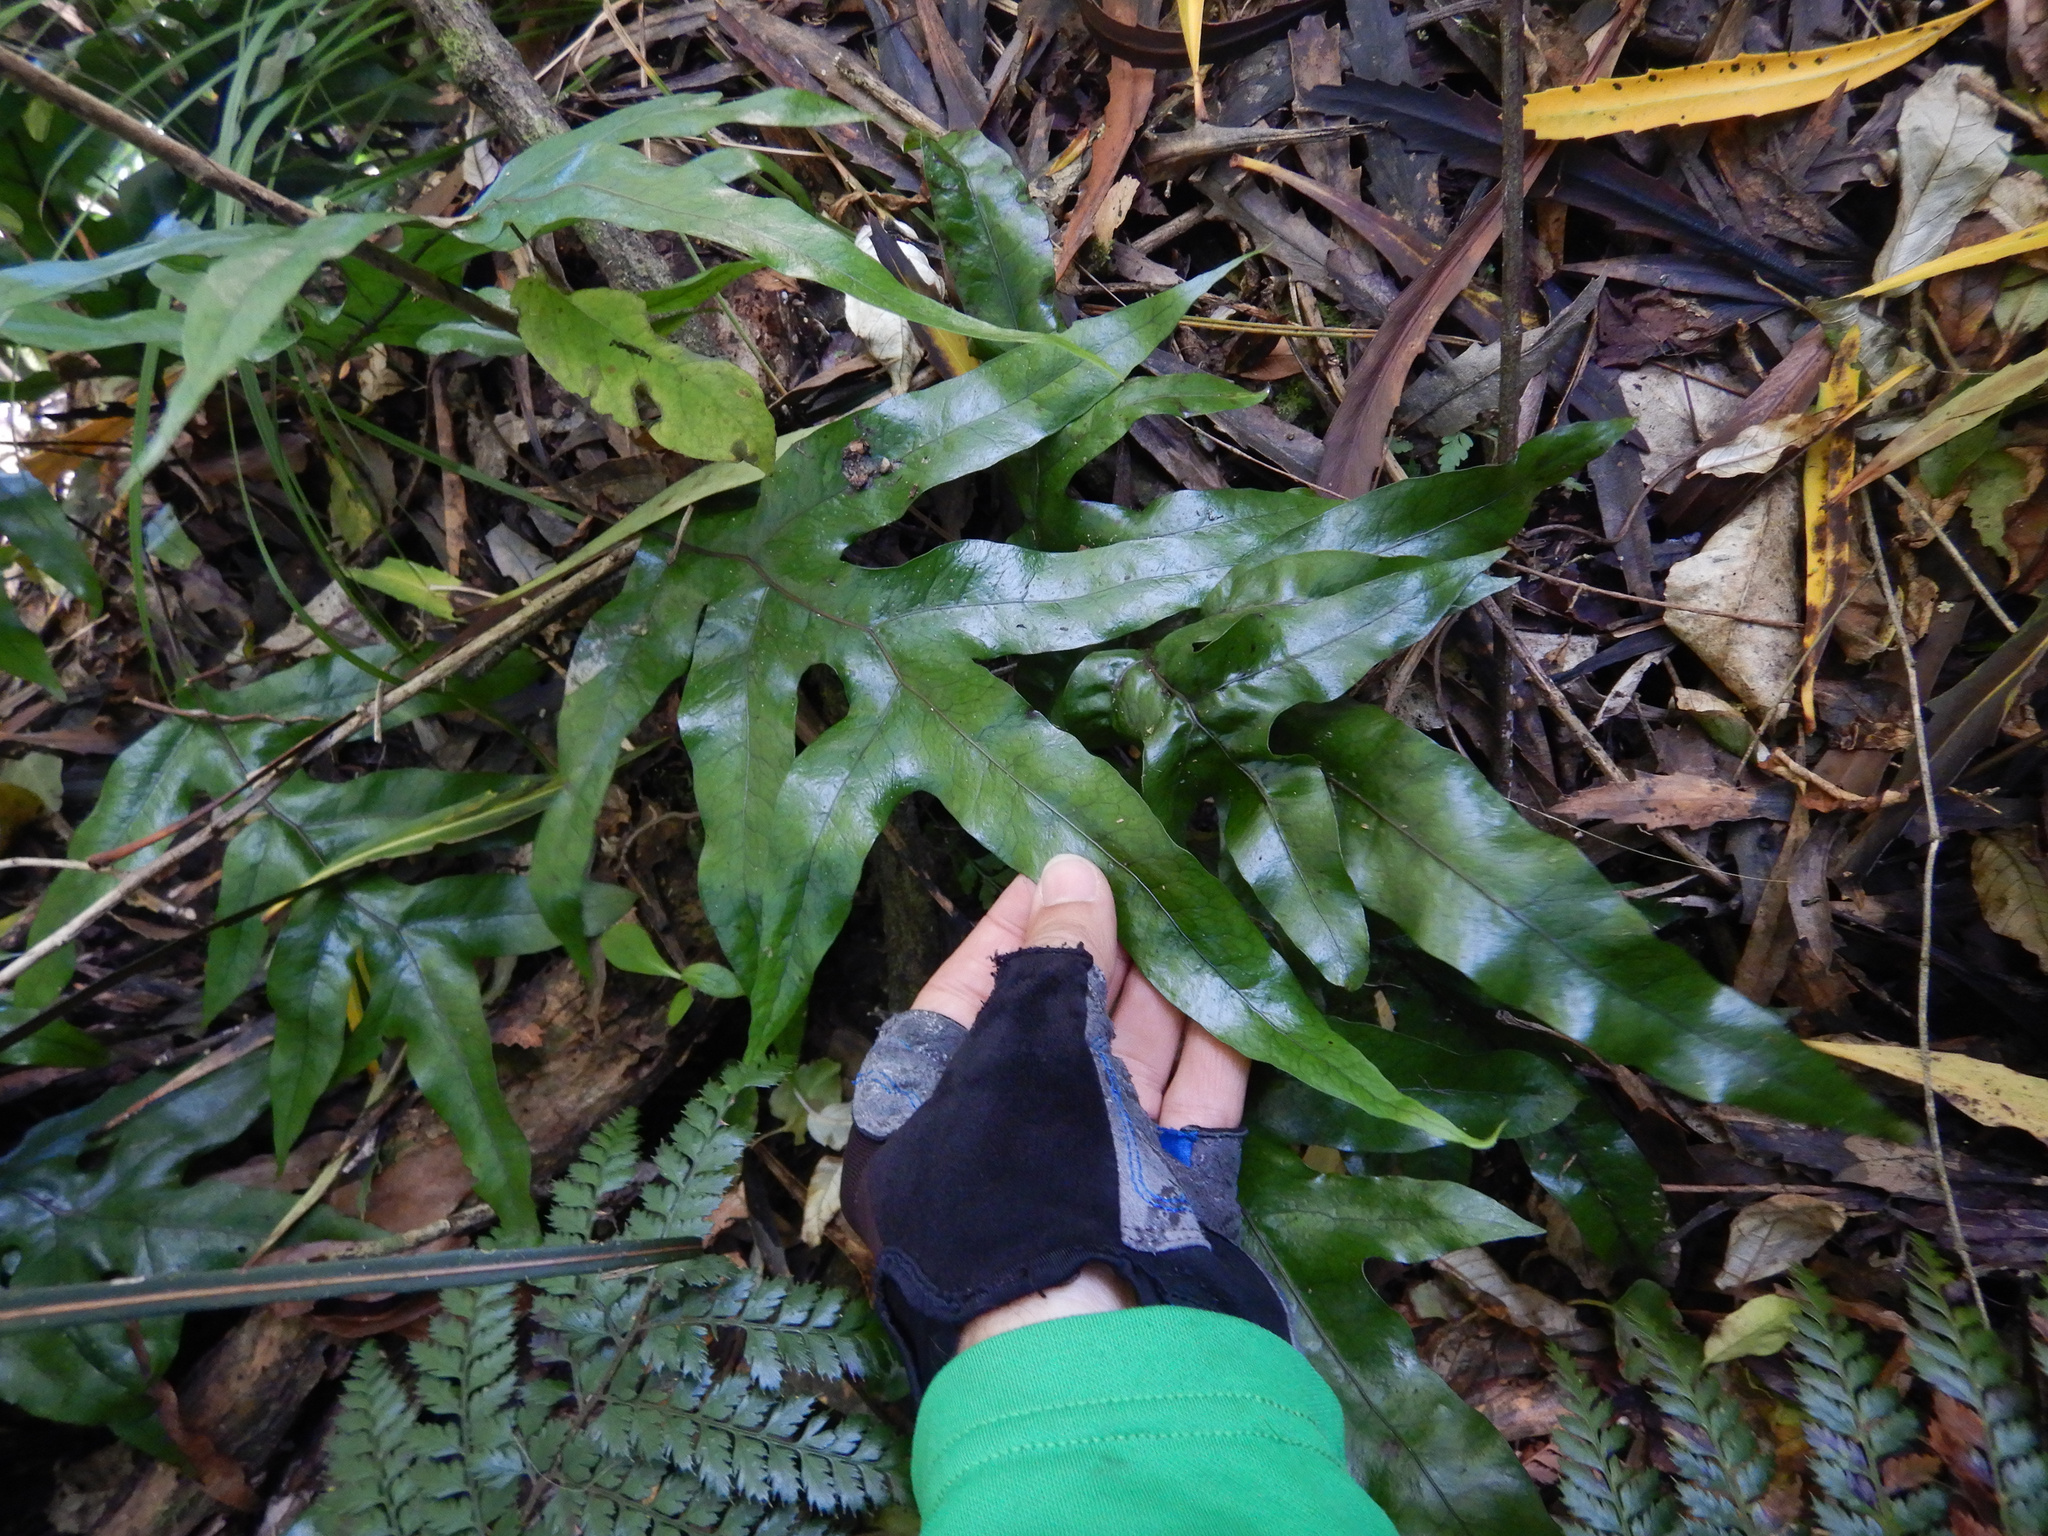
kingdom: Plantae
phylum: Tracheophyta
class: Polypodiopsida
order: Polypodiales
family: Polypodiaceae
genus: Lecanopteris
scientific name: Lecanopteris pustulata
